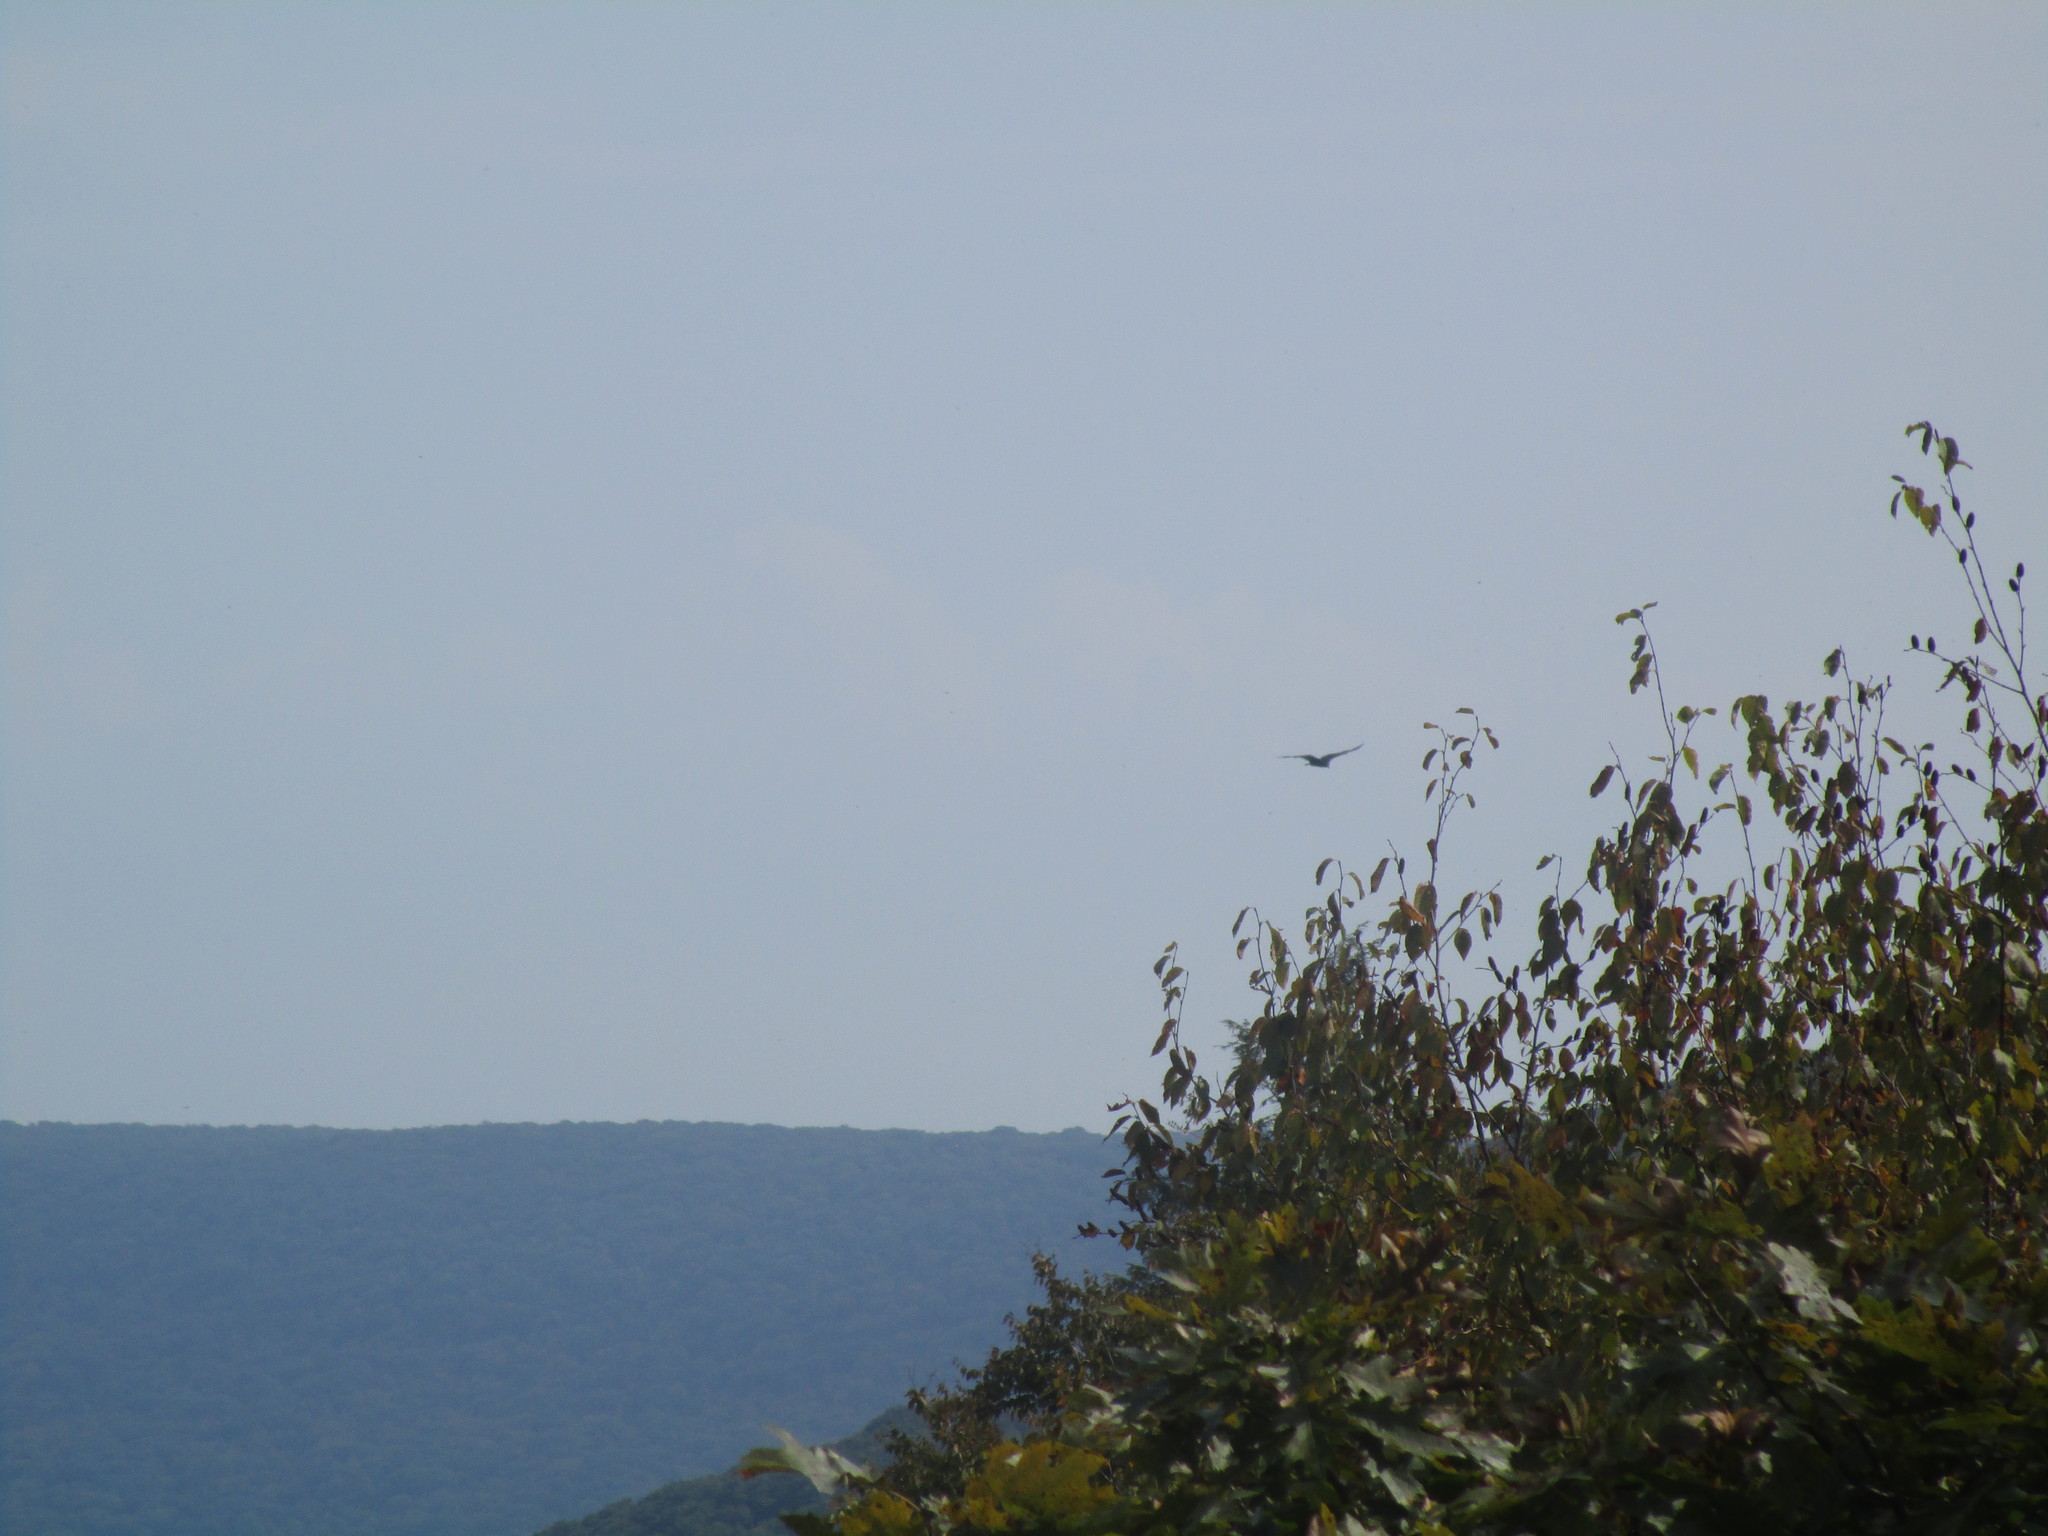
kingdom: Animalia
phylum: Chordata
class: Aves
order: Accipitriformes
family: Cathartidae
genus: Cathartes
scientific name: Cathartes aura
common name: Turkey vulture
